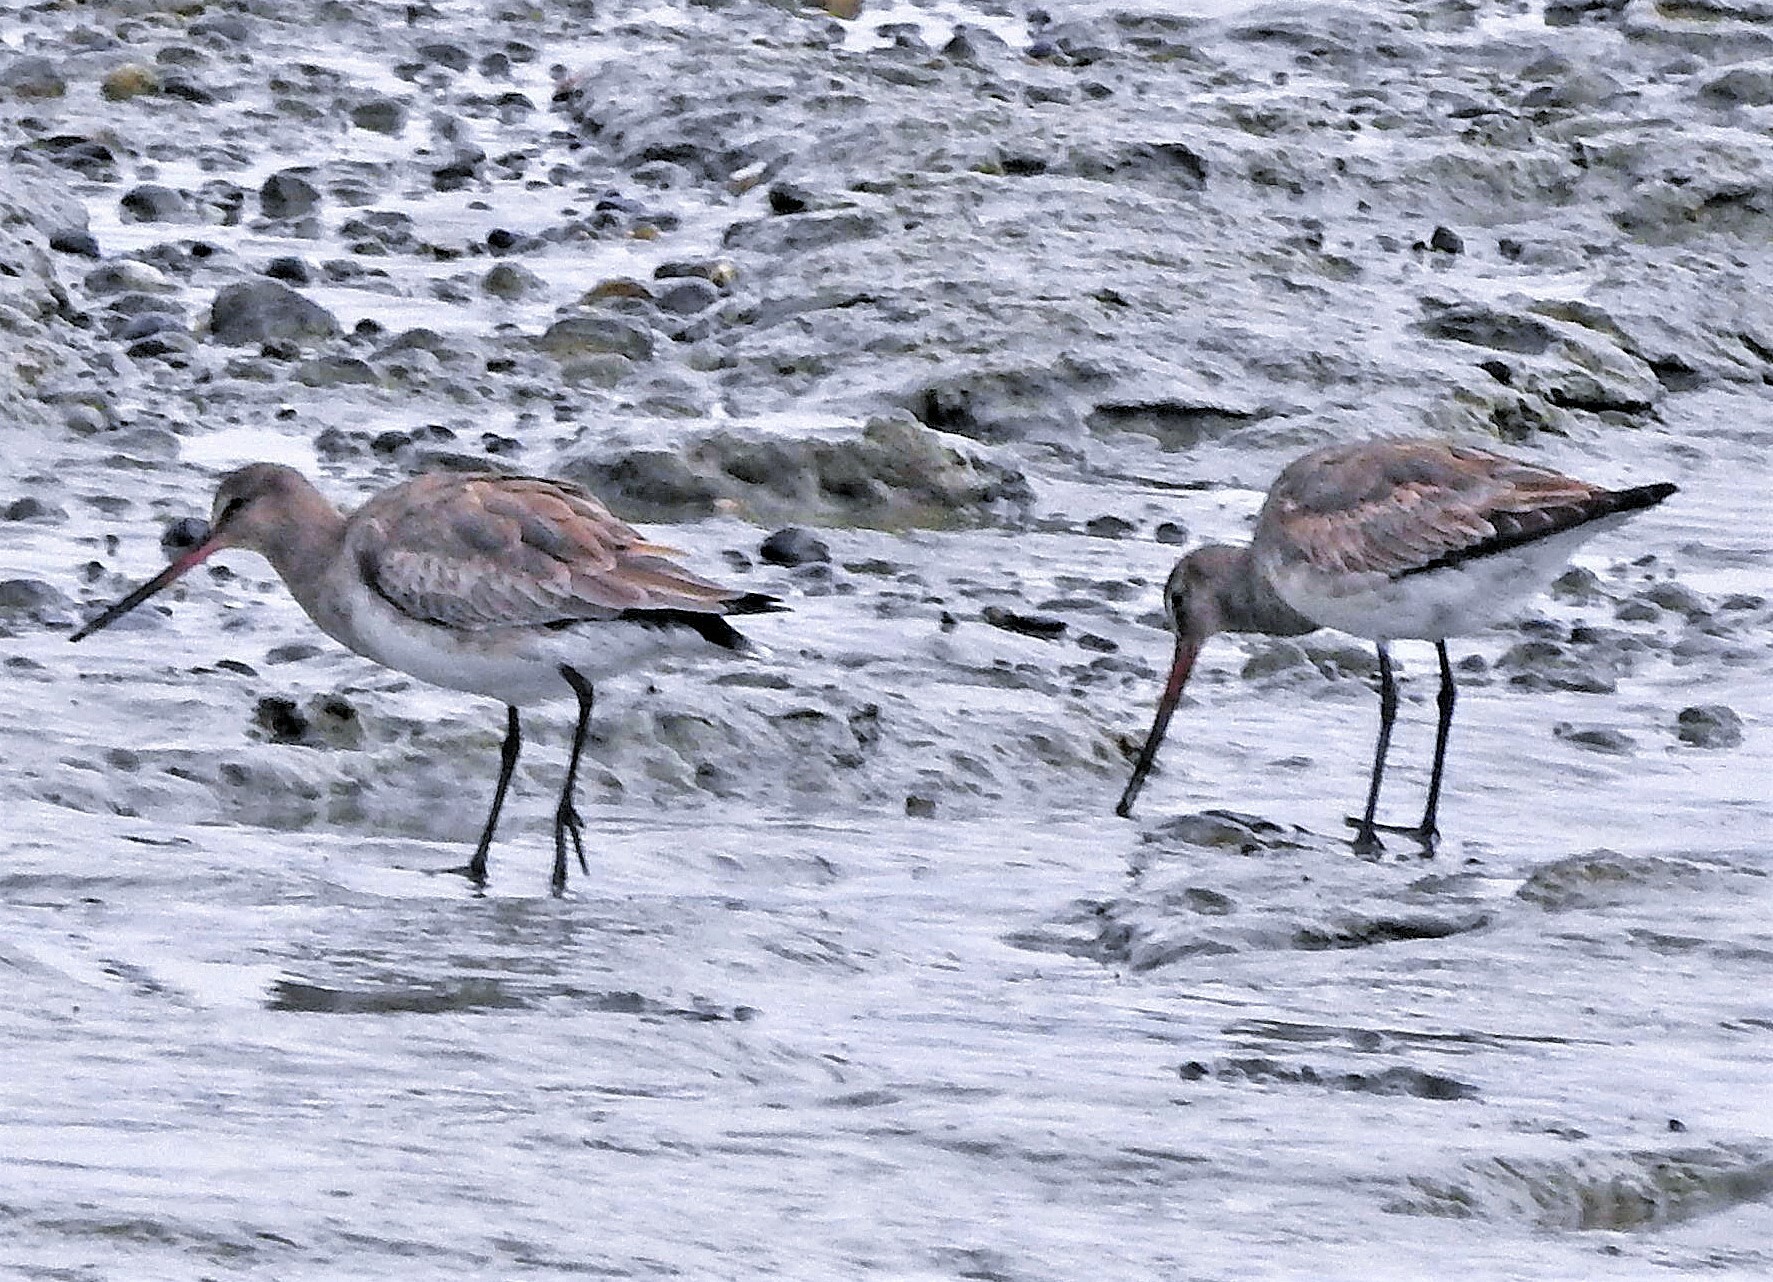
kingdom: Animalia
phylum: Chordata
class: Aves
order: Charadriiformes
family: Scolopacidae
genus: Limosa
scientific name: Limosa haemastica
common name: Hudsonian godwit
